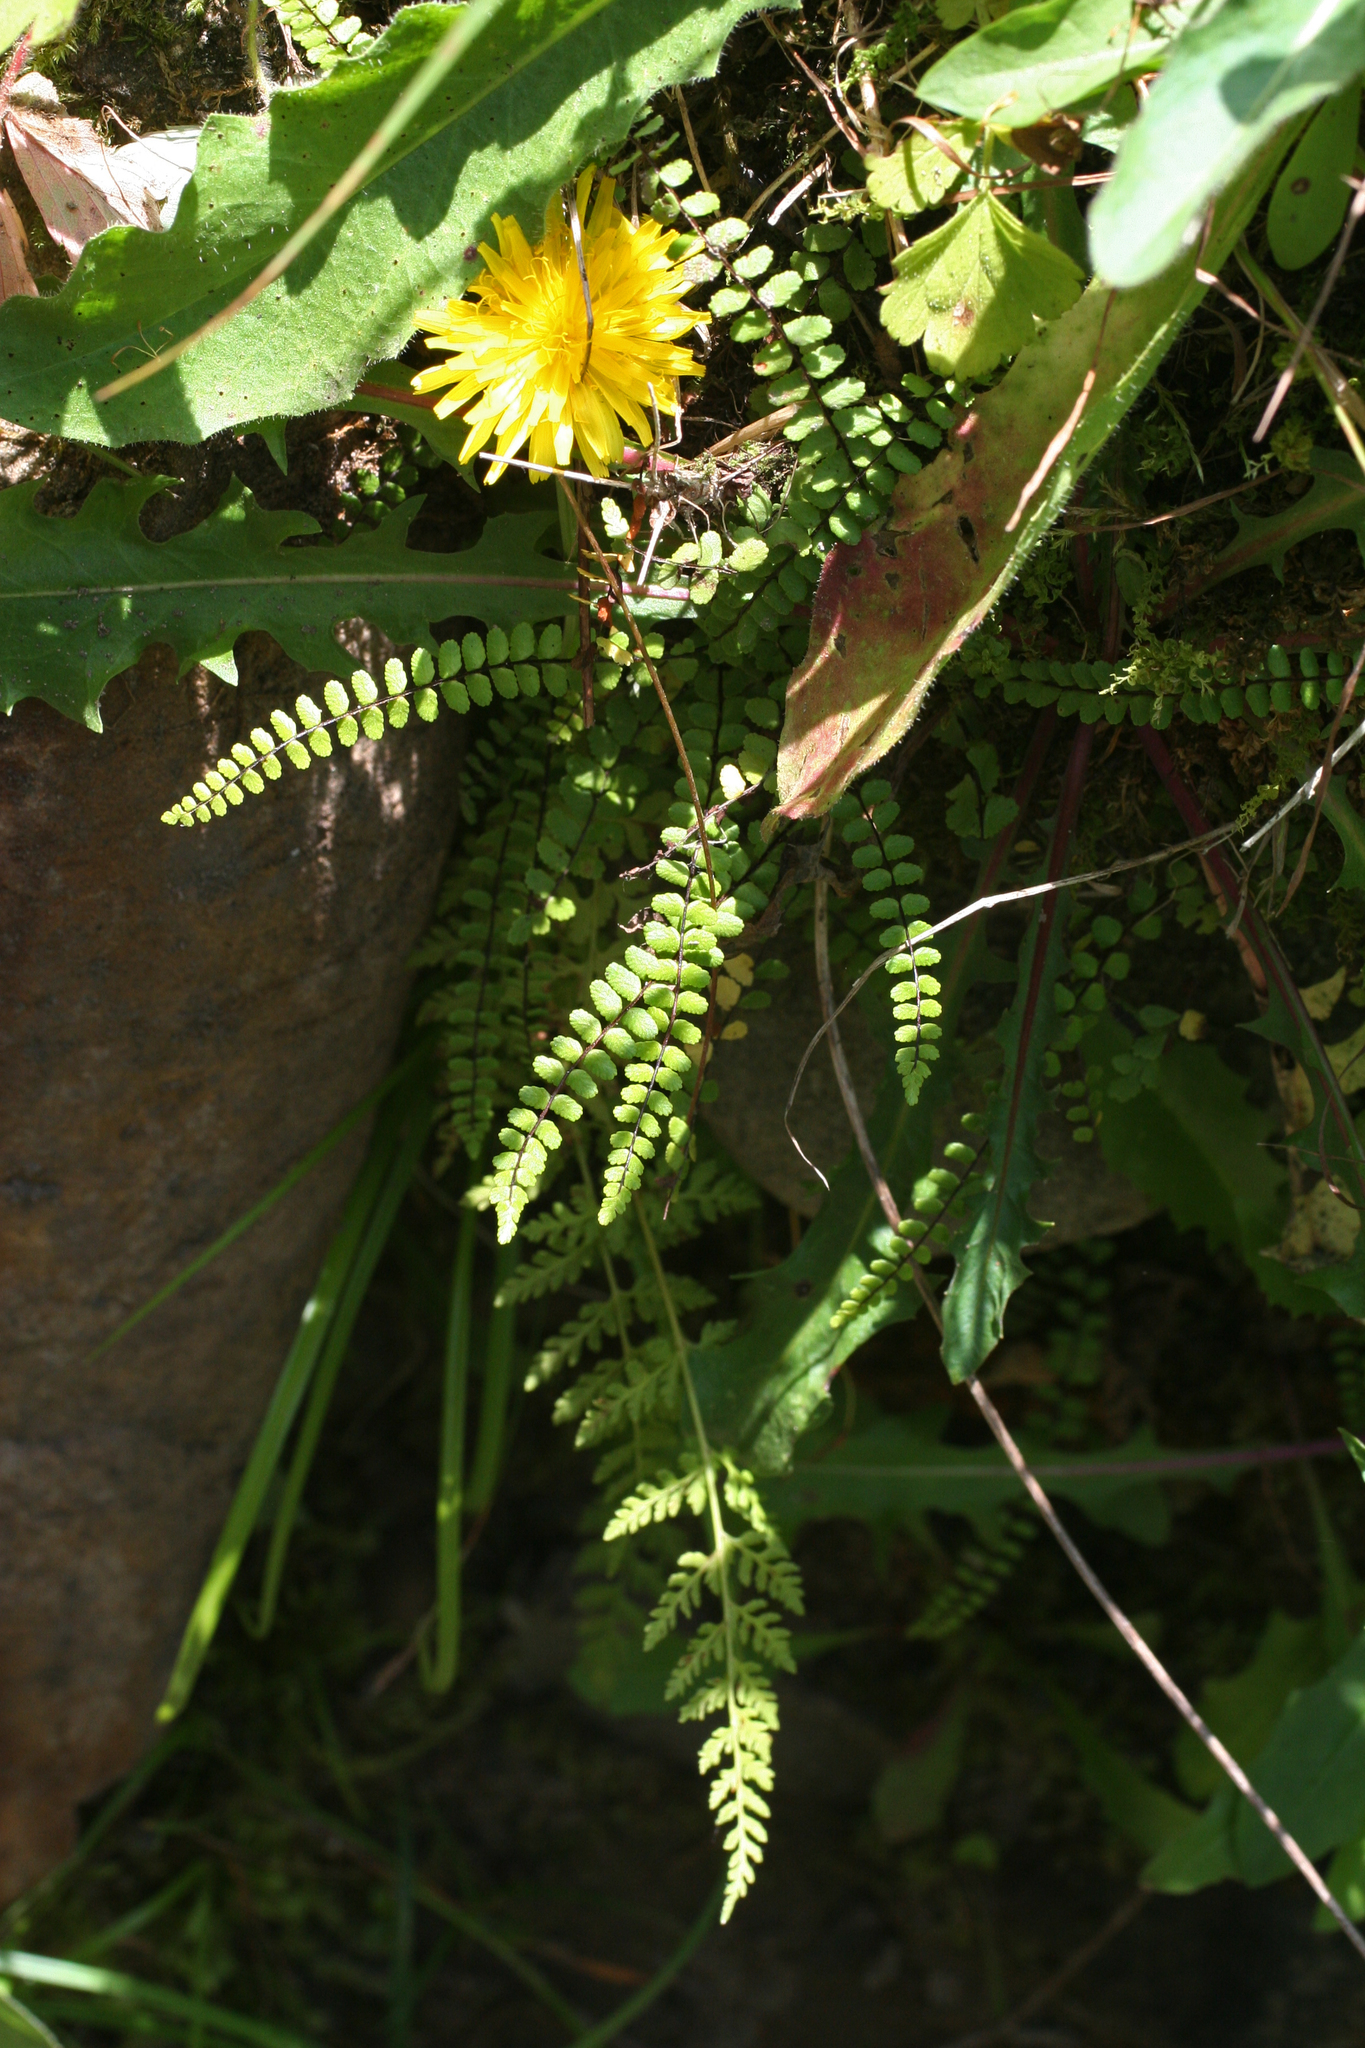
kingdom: Plantae
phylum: Tracheophyta
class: Polypodiopsida
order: Polypodiales
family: Aspleniaceae
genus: Asplenium
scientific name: Asplenium trichomanes
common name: Maidenhair spleenwort
